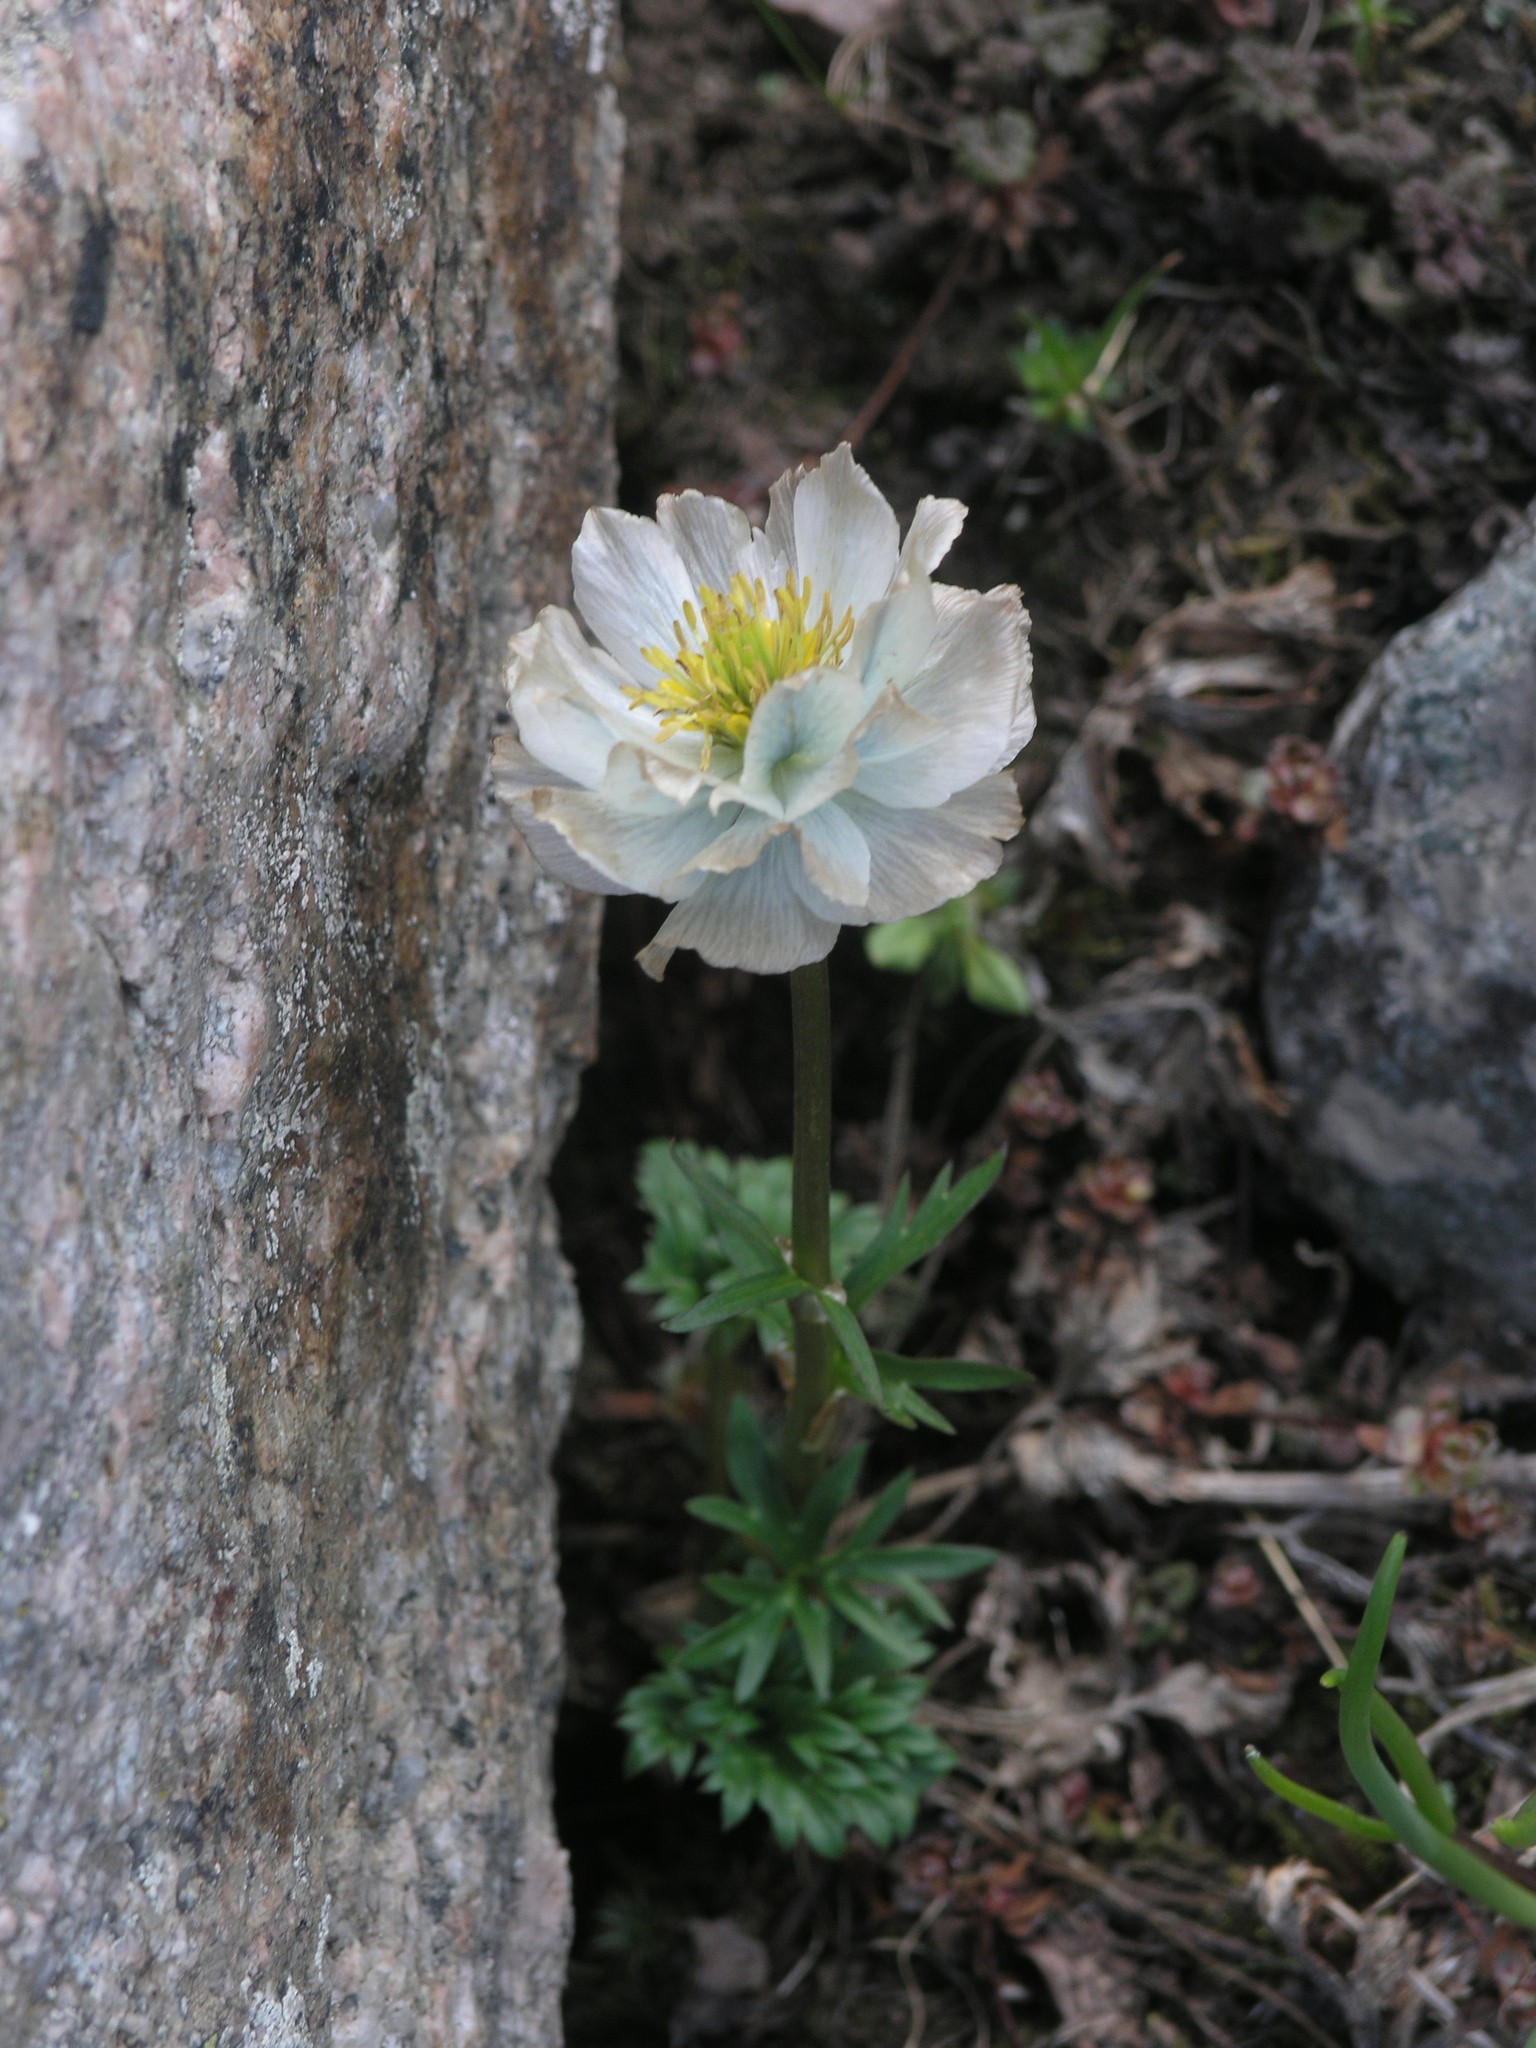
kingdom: Plantae
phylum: Tracheophyta
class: Magnoliopsida
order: Ranunculales
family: Ranunculaceae
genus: Trollius
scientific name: Trollius lilacinus
